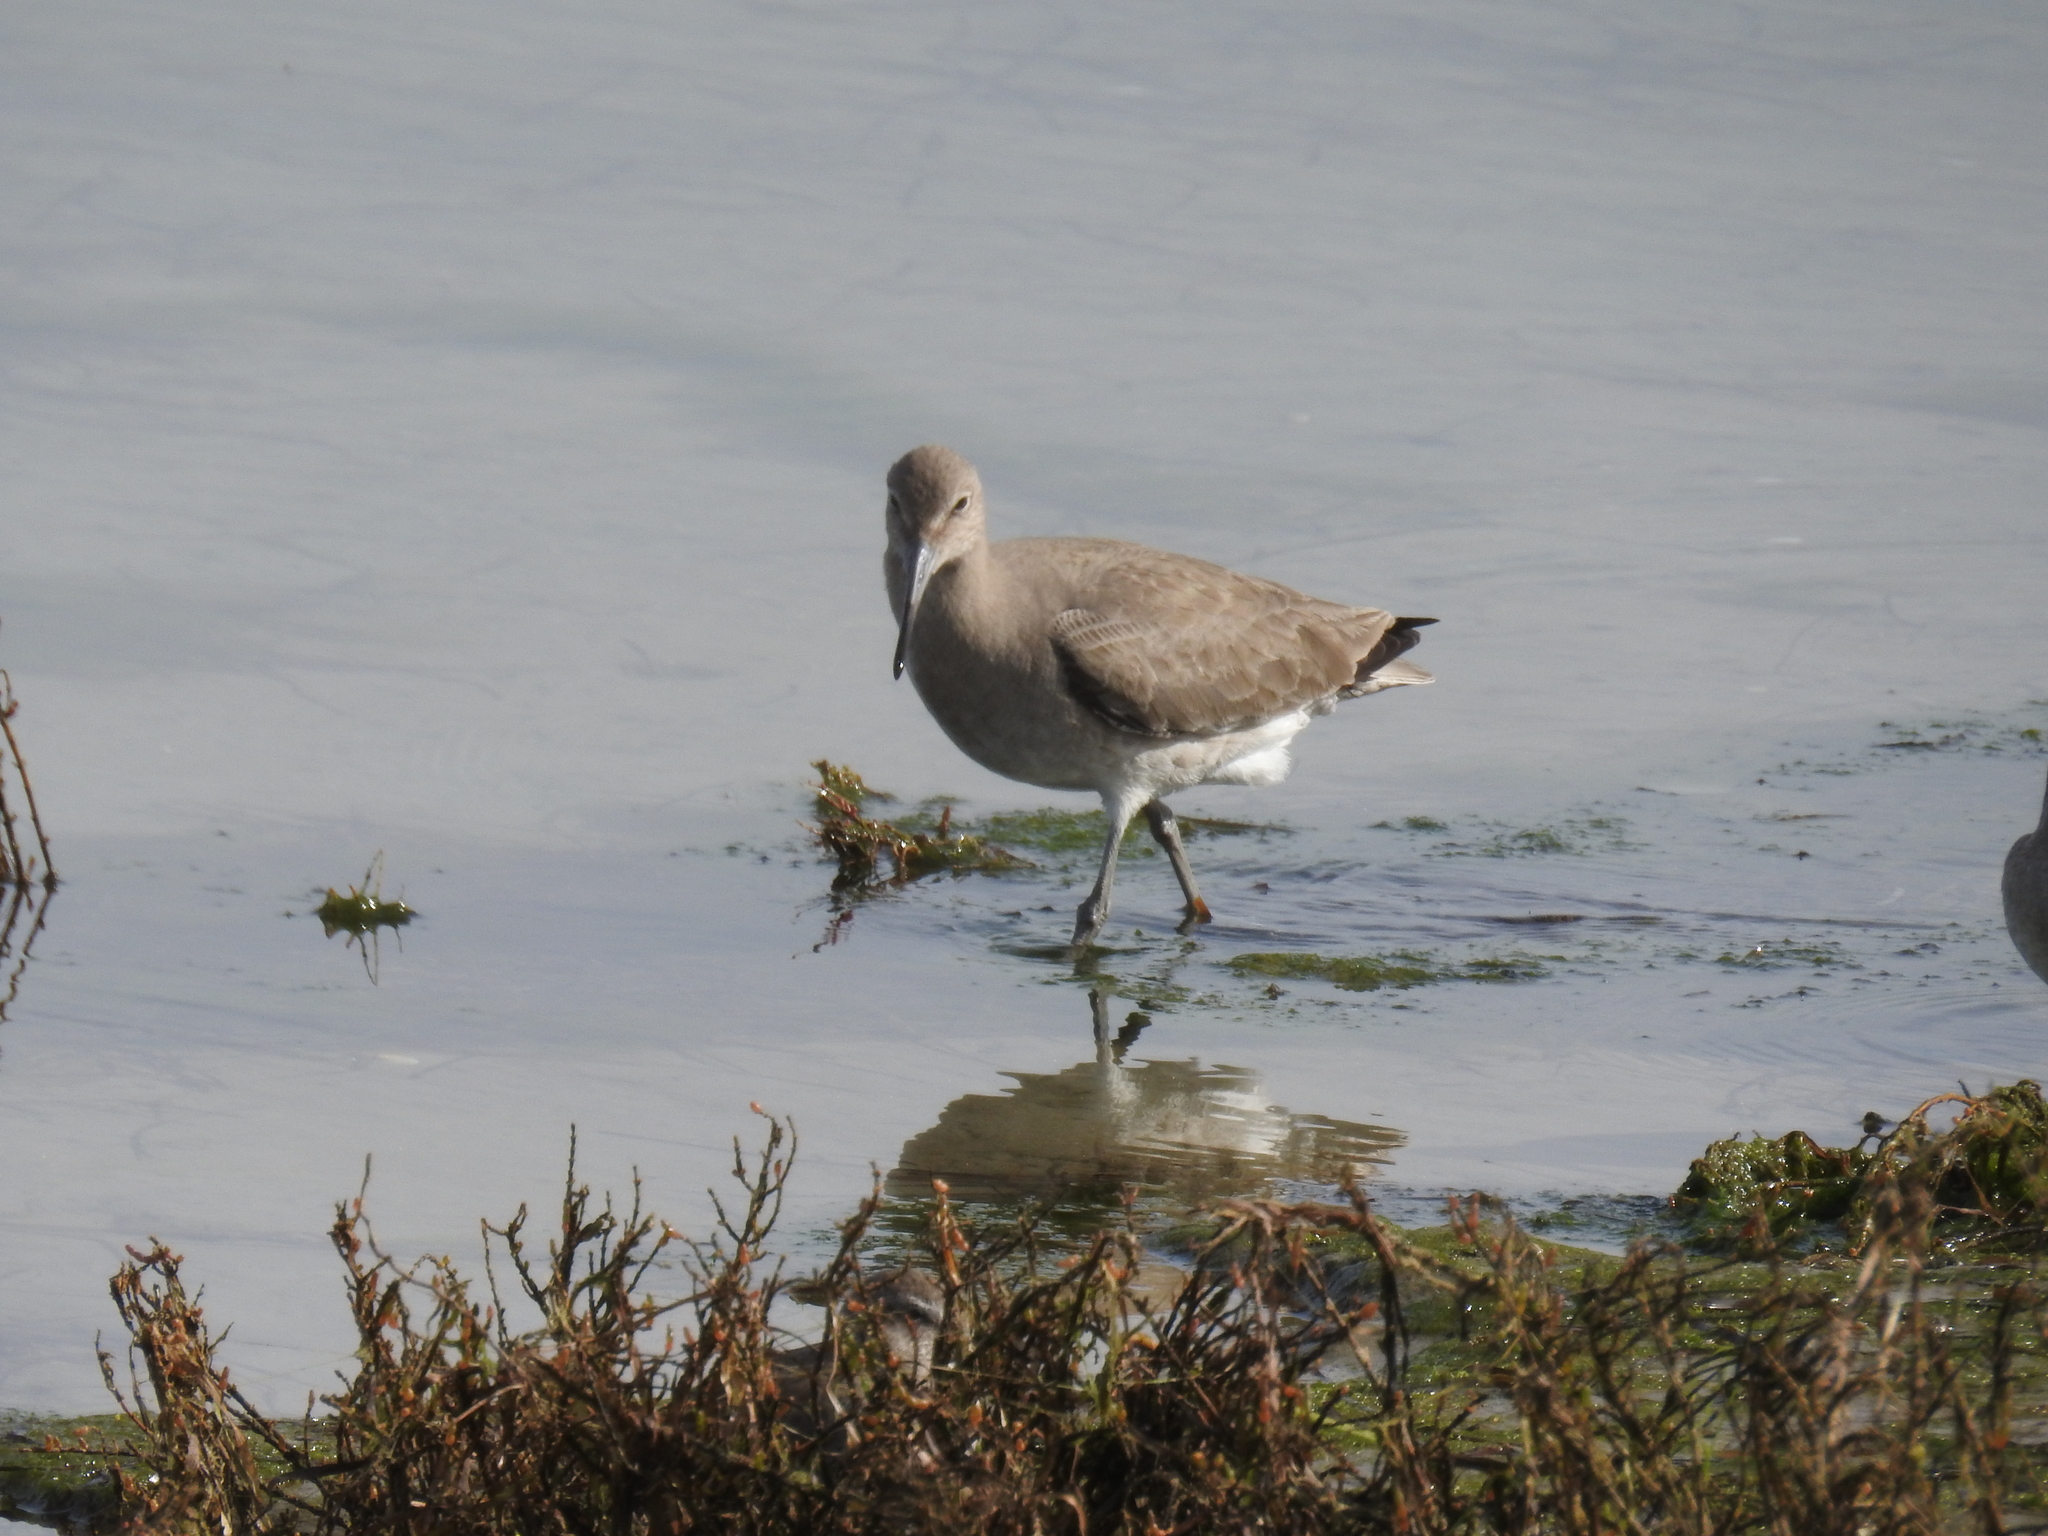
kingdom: Animalia
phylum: Chordata
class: Aves
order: Charadriiformes
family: Scolopacidae
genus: Tringa
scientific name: Tringa semipalmata
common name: Willet
